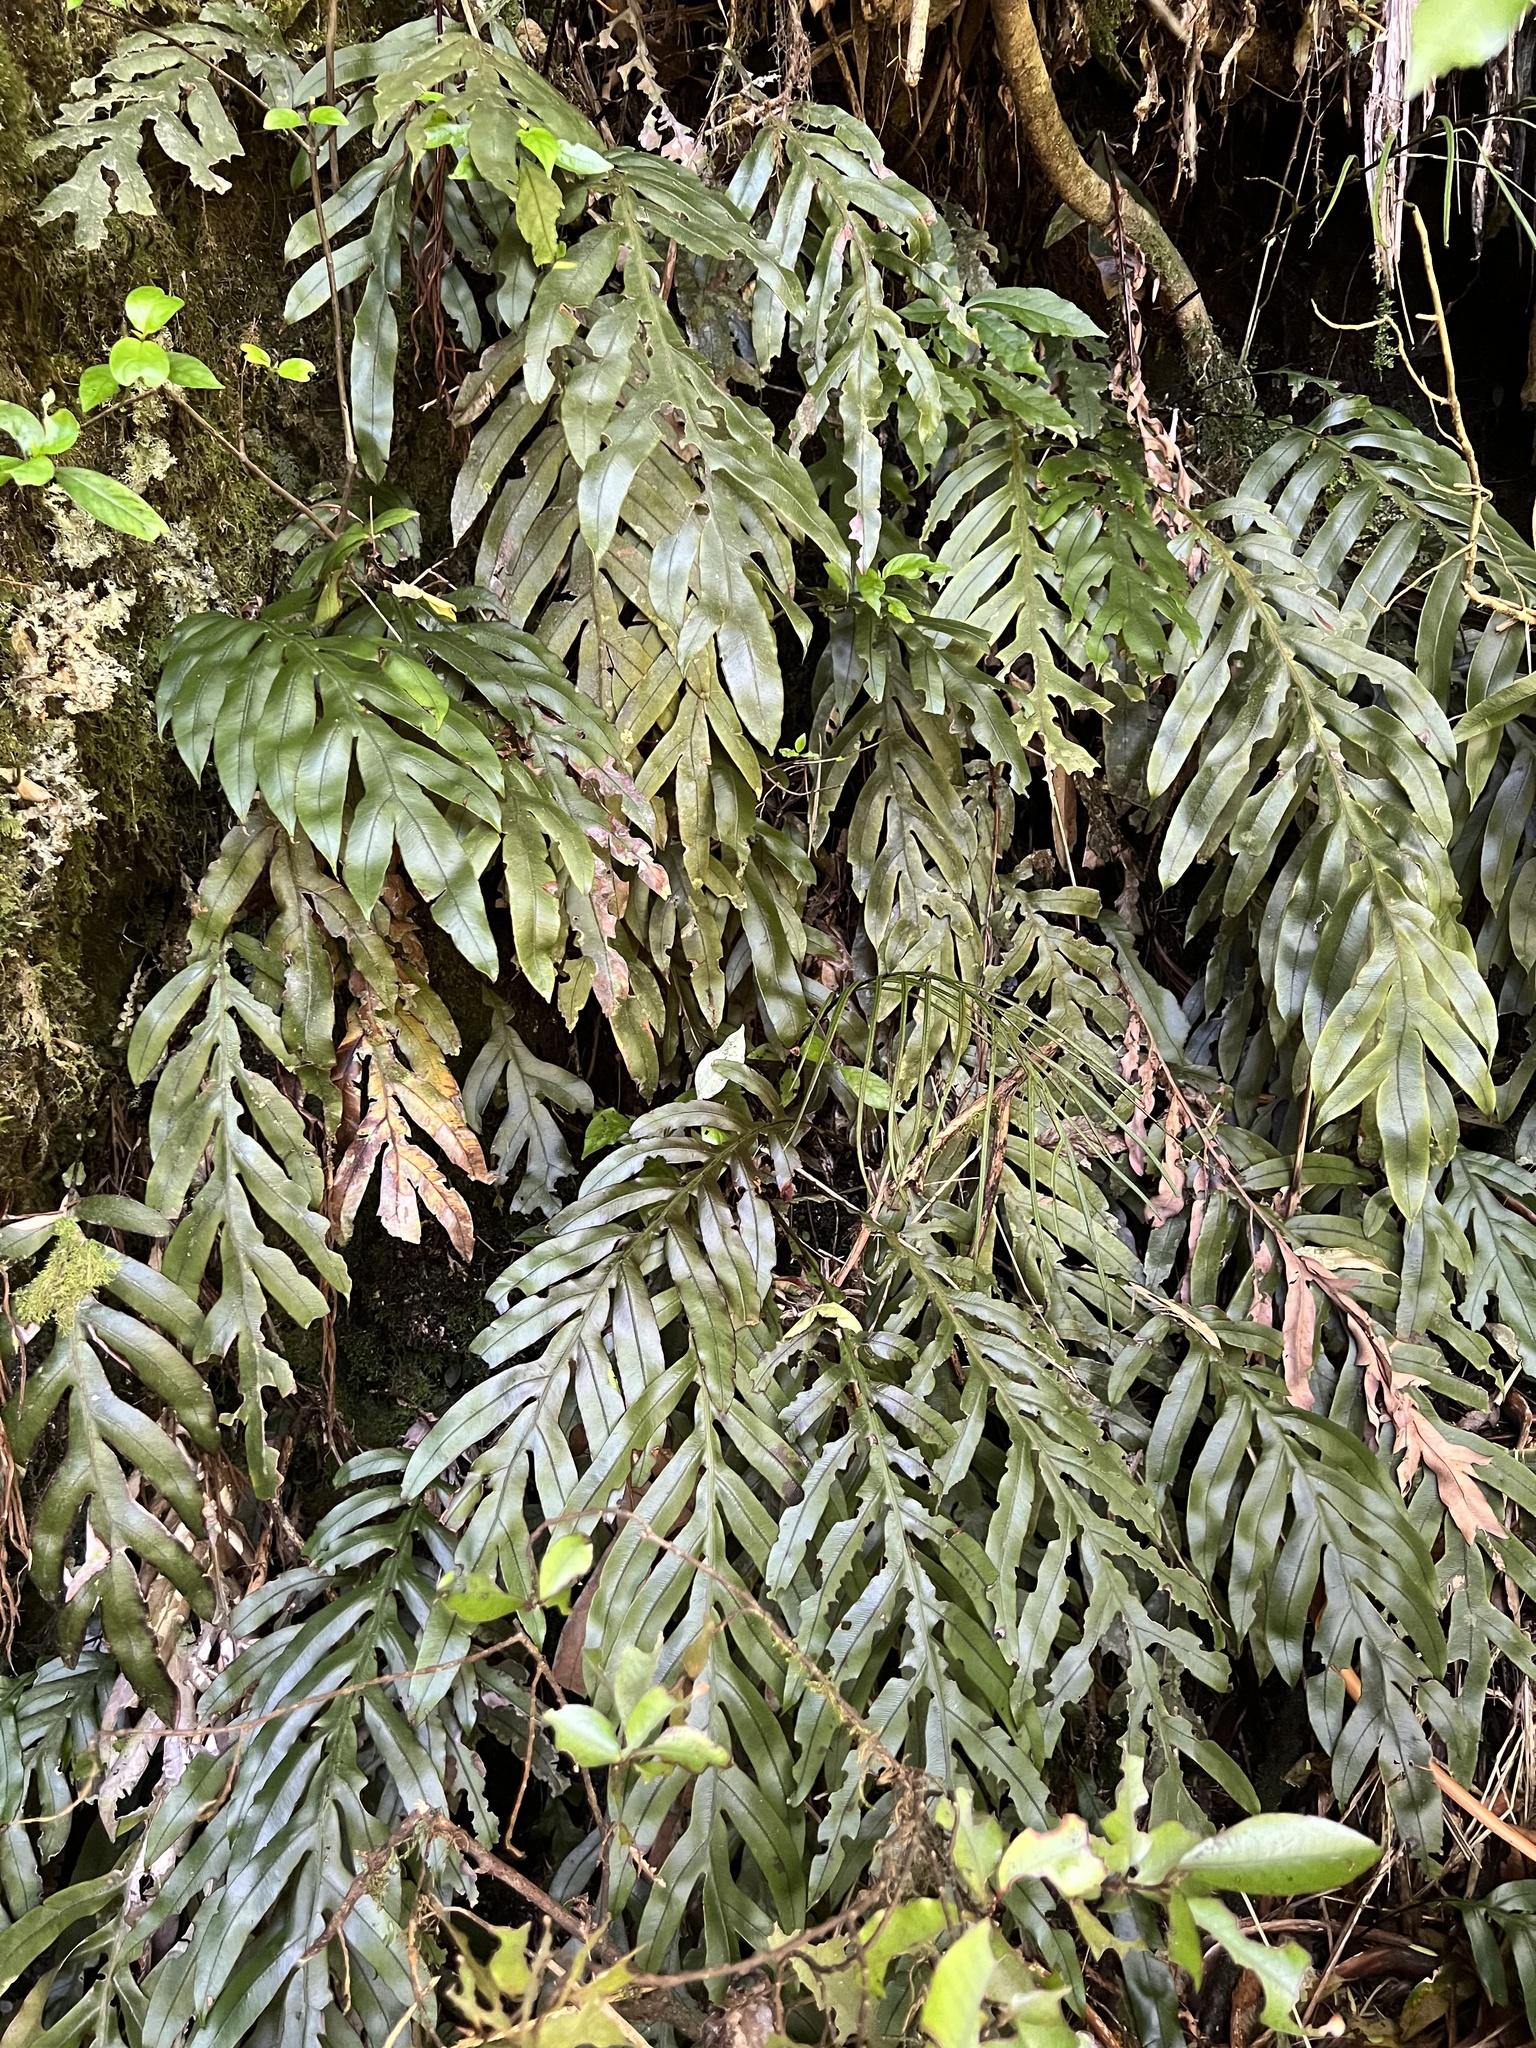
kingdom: Plantae
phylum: Tracheophyta
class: Polypodiopsida
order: Polypodiales
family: Blechnaceae
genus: Austroblechnum
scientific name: Austroblechnum colensoi
